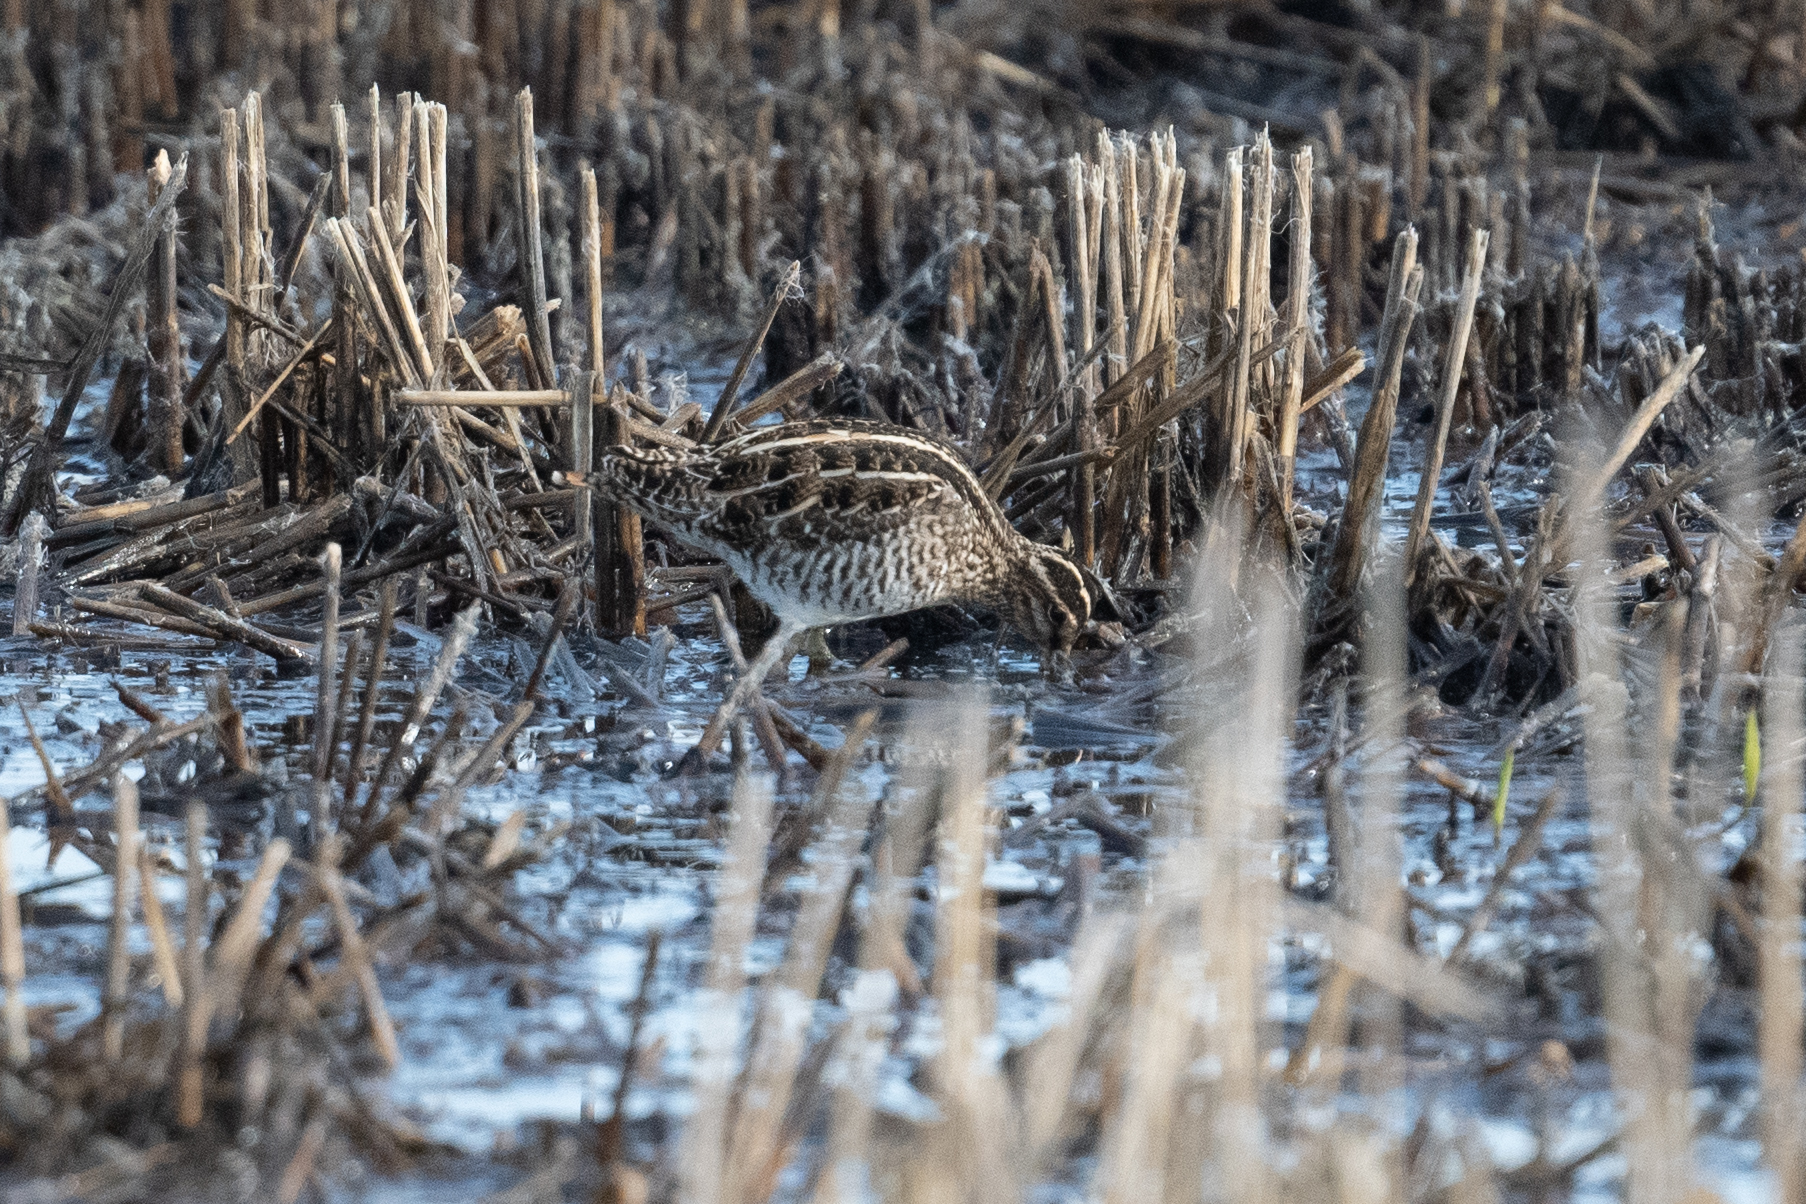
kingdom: Animalia
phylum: Chordata
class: Aves
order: Charadriiformes
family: Scolopacidae
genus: Gallinago
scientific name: Gallinago delicata
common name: Wilson's snipe
